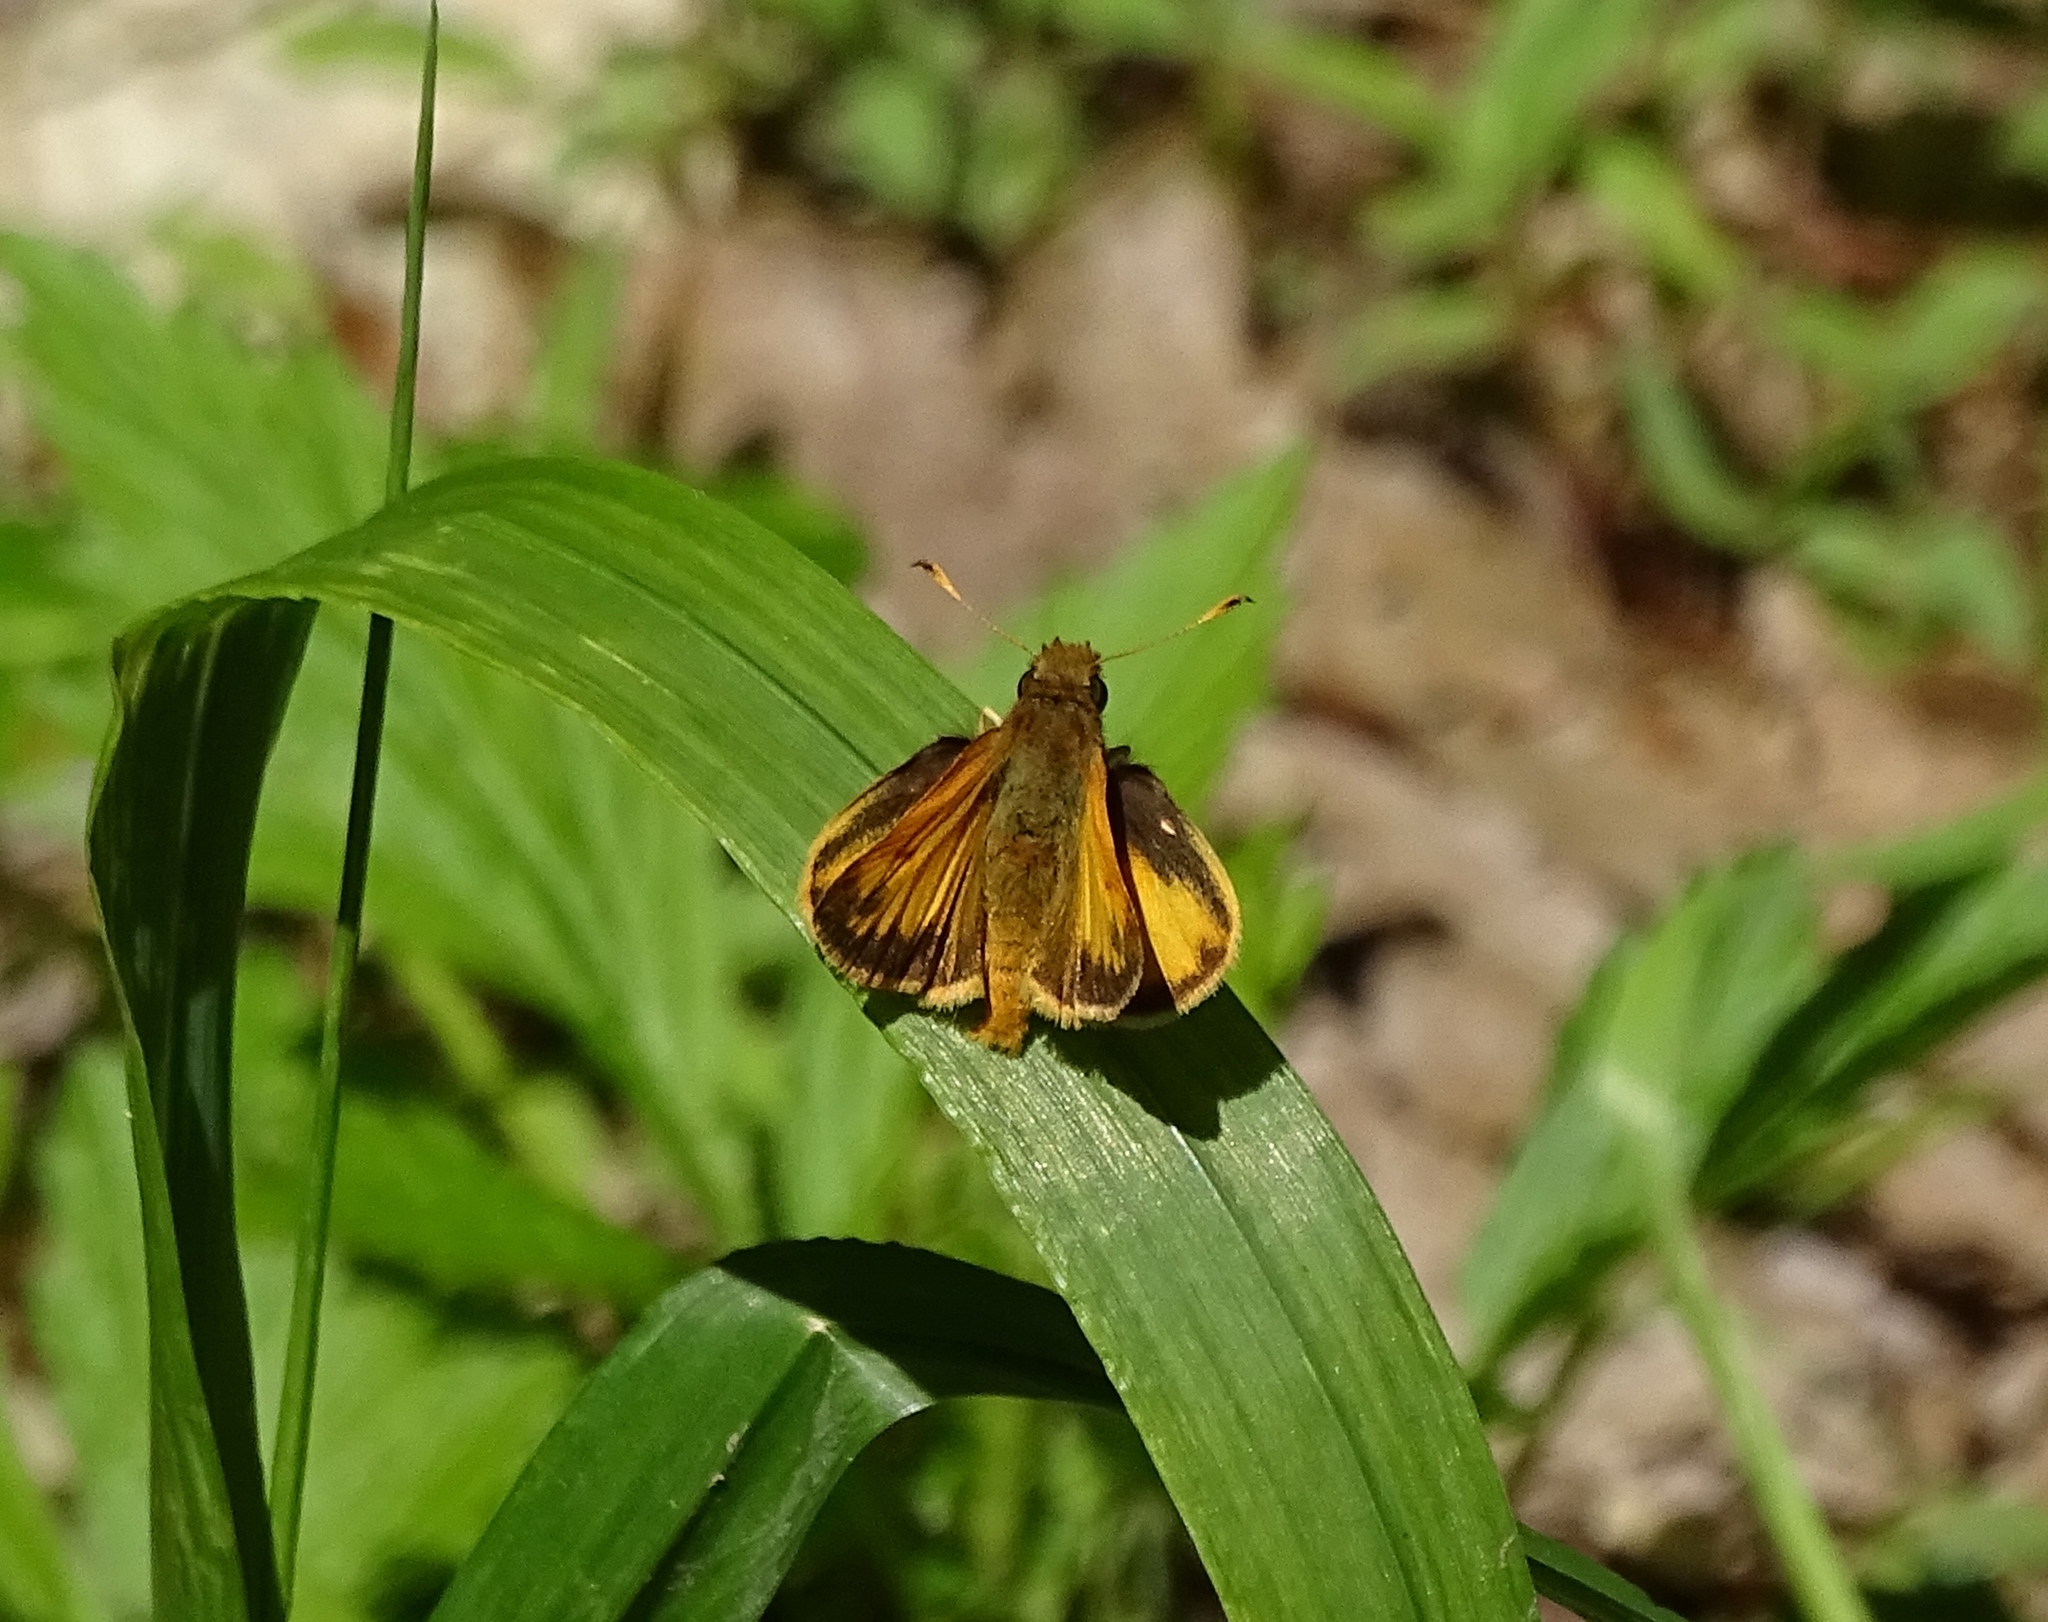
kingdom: Animalia
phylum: Arthropoda
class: Insecta
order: Lepidoptera
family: Hesperiidae
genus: Lon
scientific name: Lon zabulon
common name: Zabulon skipper
